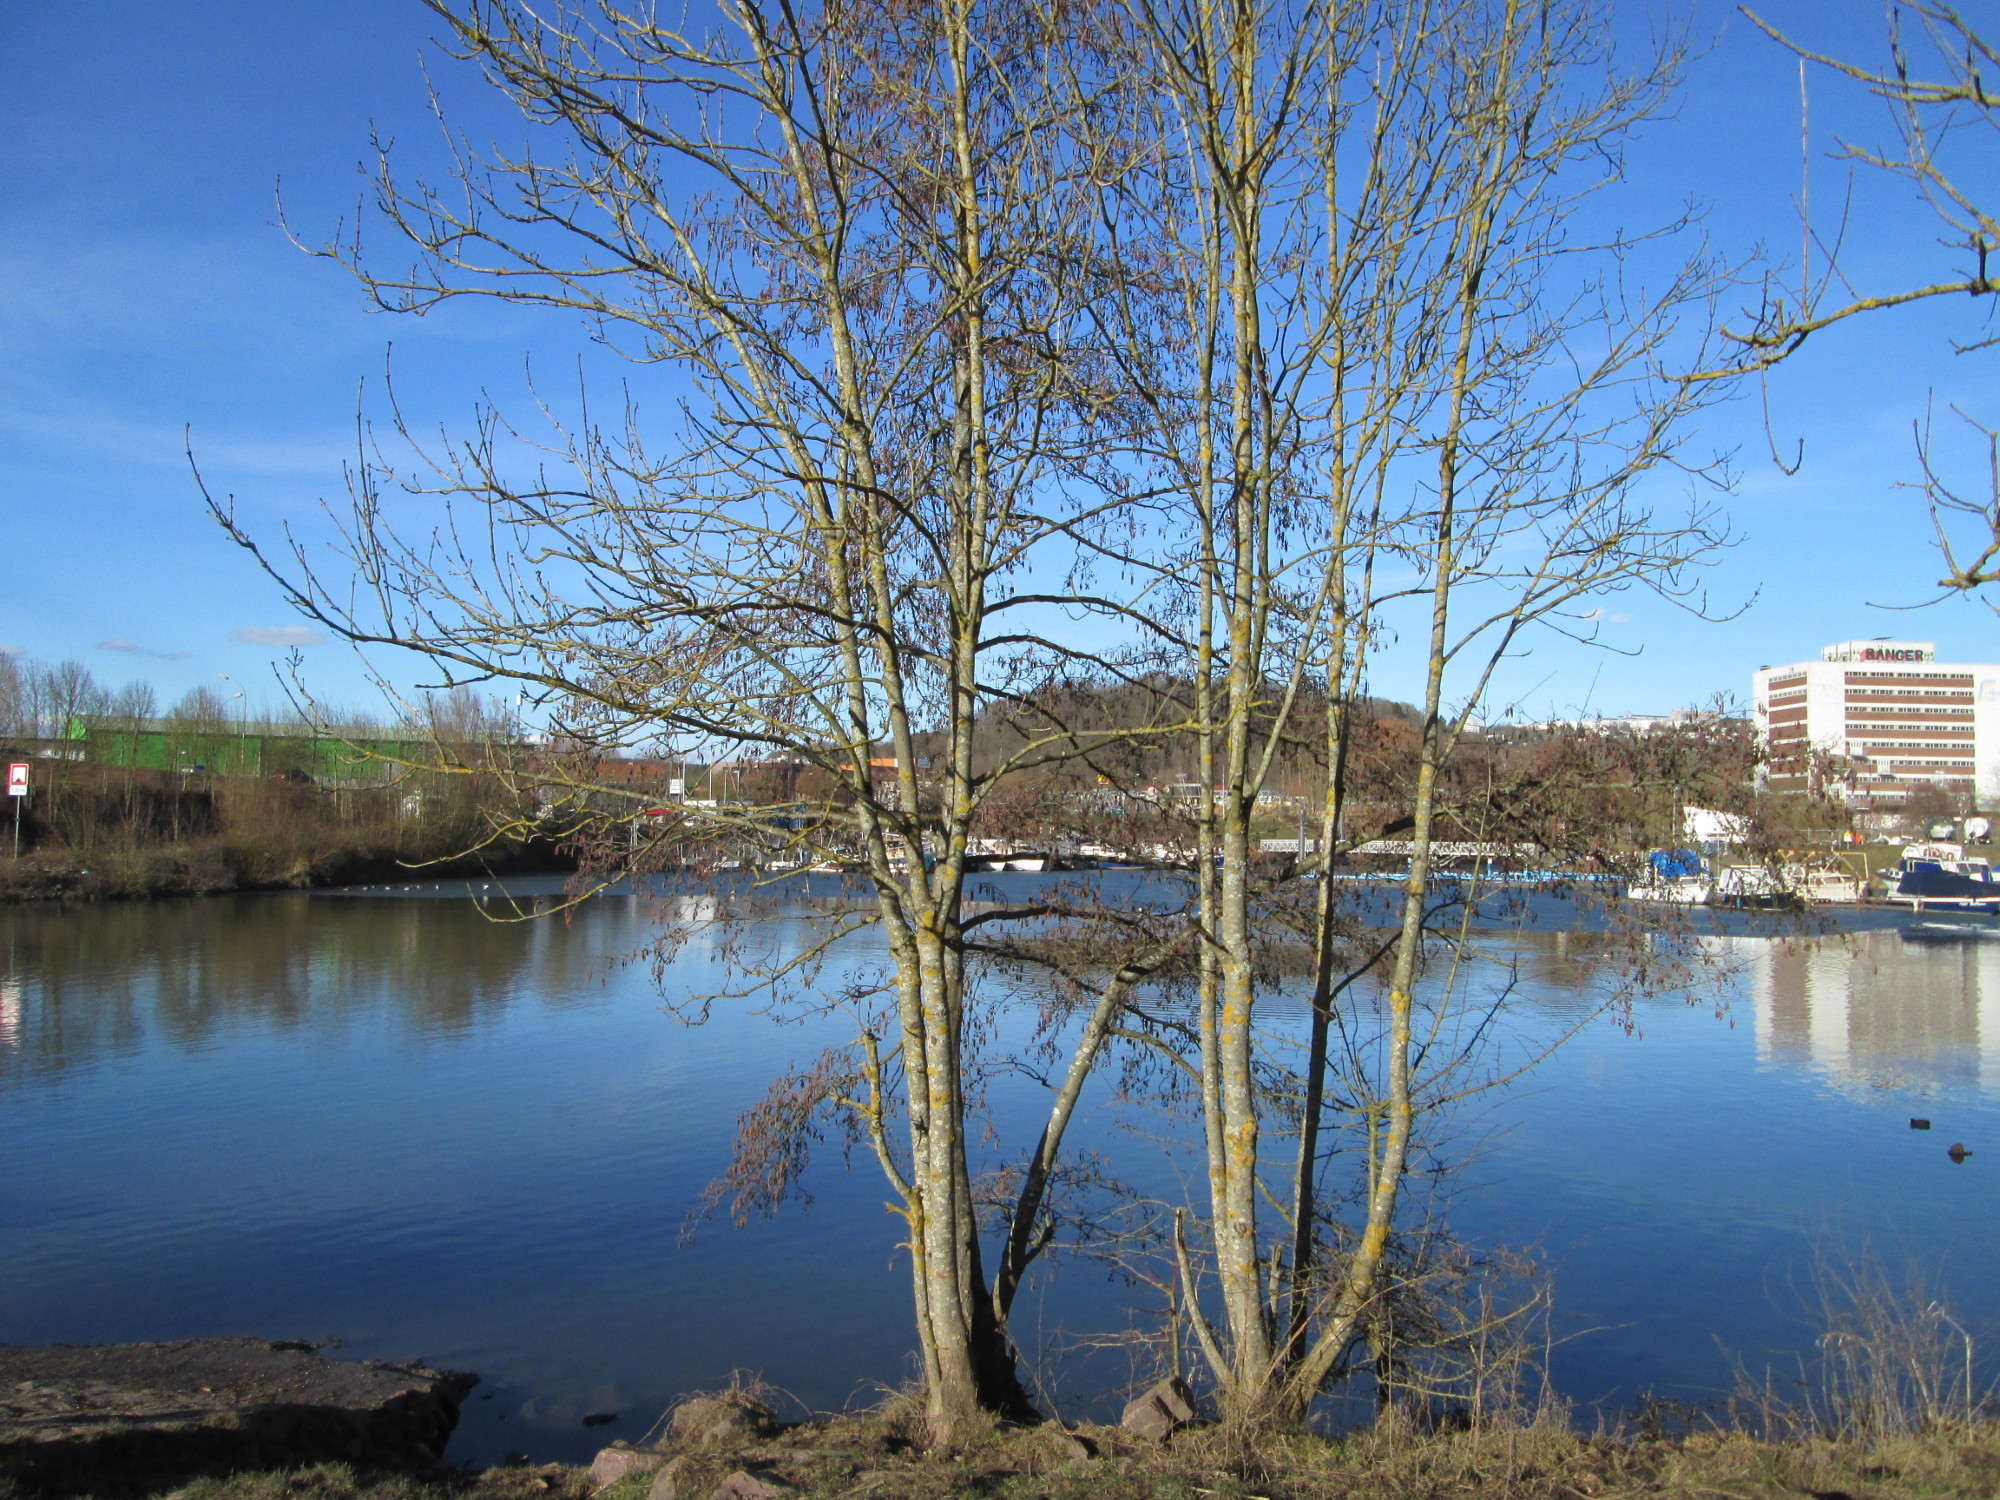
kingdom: Plantae
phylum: Tracheophyta
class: Magnoliopsida
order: Fagales
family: Betulaceae
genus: Alnus
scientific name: Alnus glutinosa
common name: Black alder
